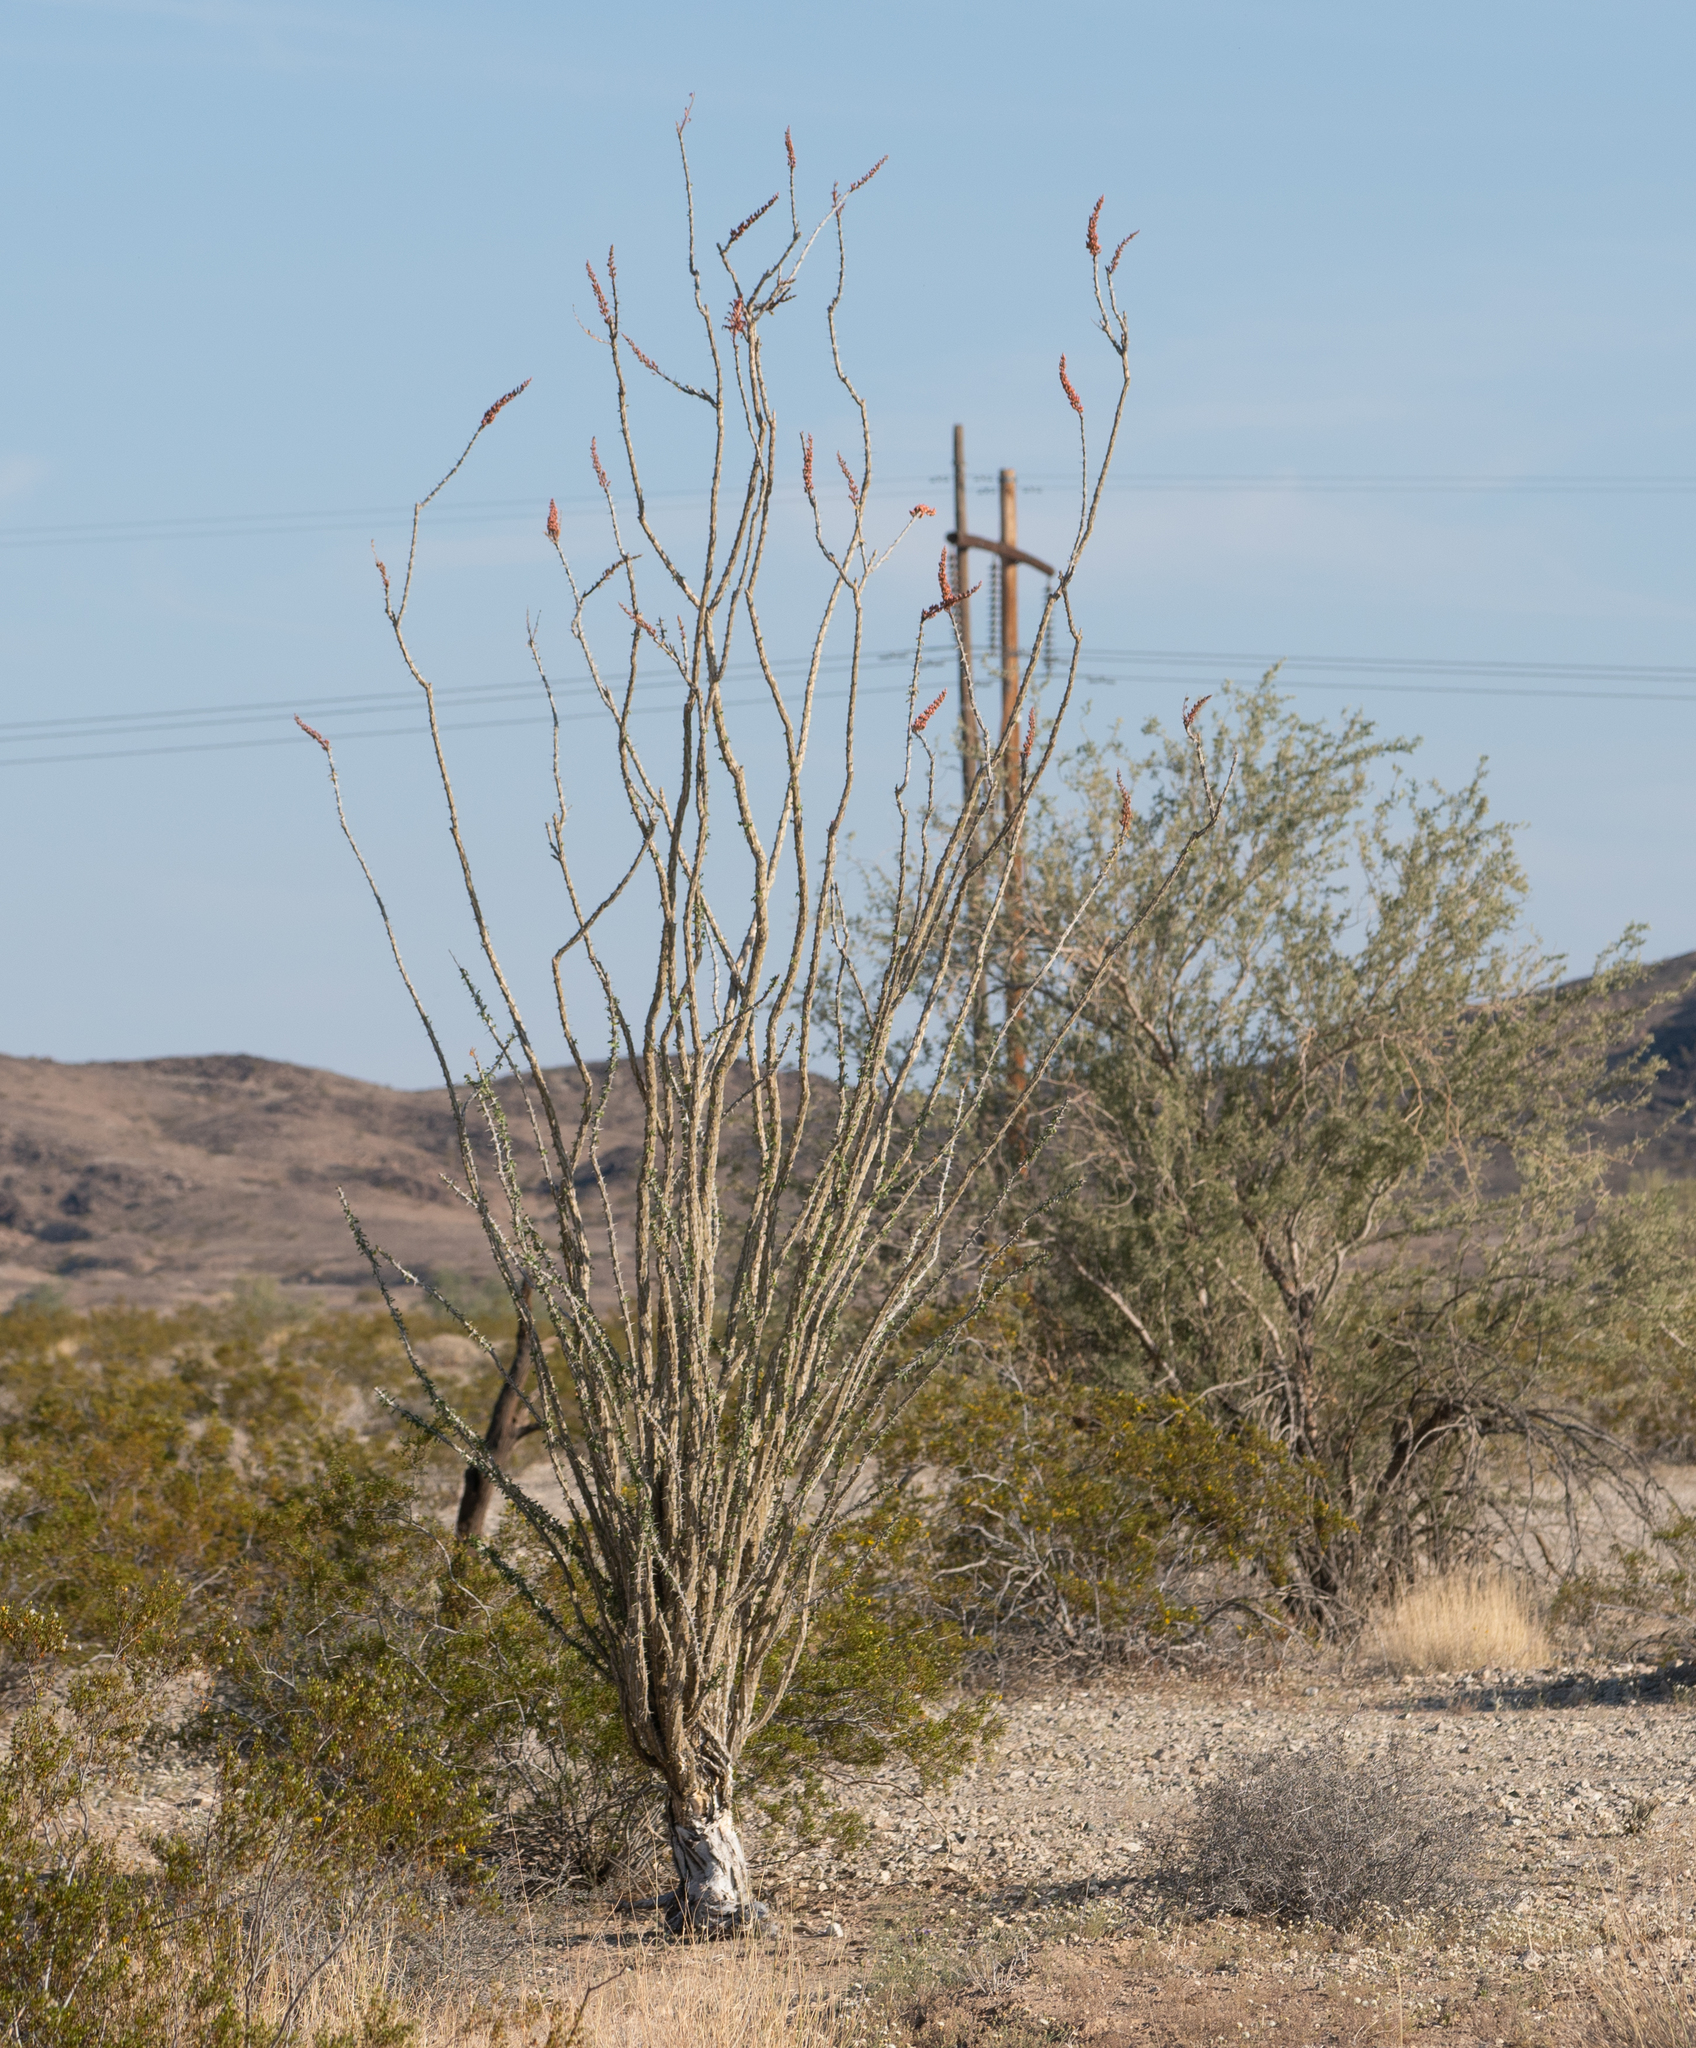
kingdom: Plantae
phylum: Tracheophyta
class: Magnoliopsida
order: Ericales
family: Fouquieriaceae
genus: Fouquieria
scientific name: Fouquieria splendens
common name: Vine-cactus
